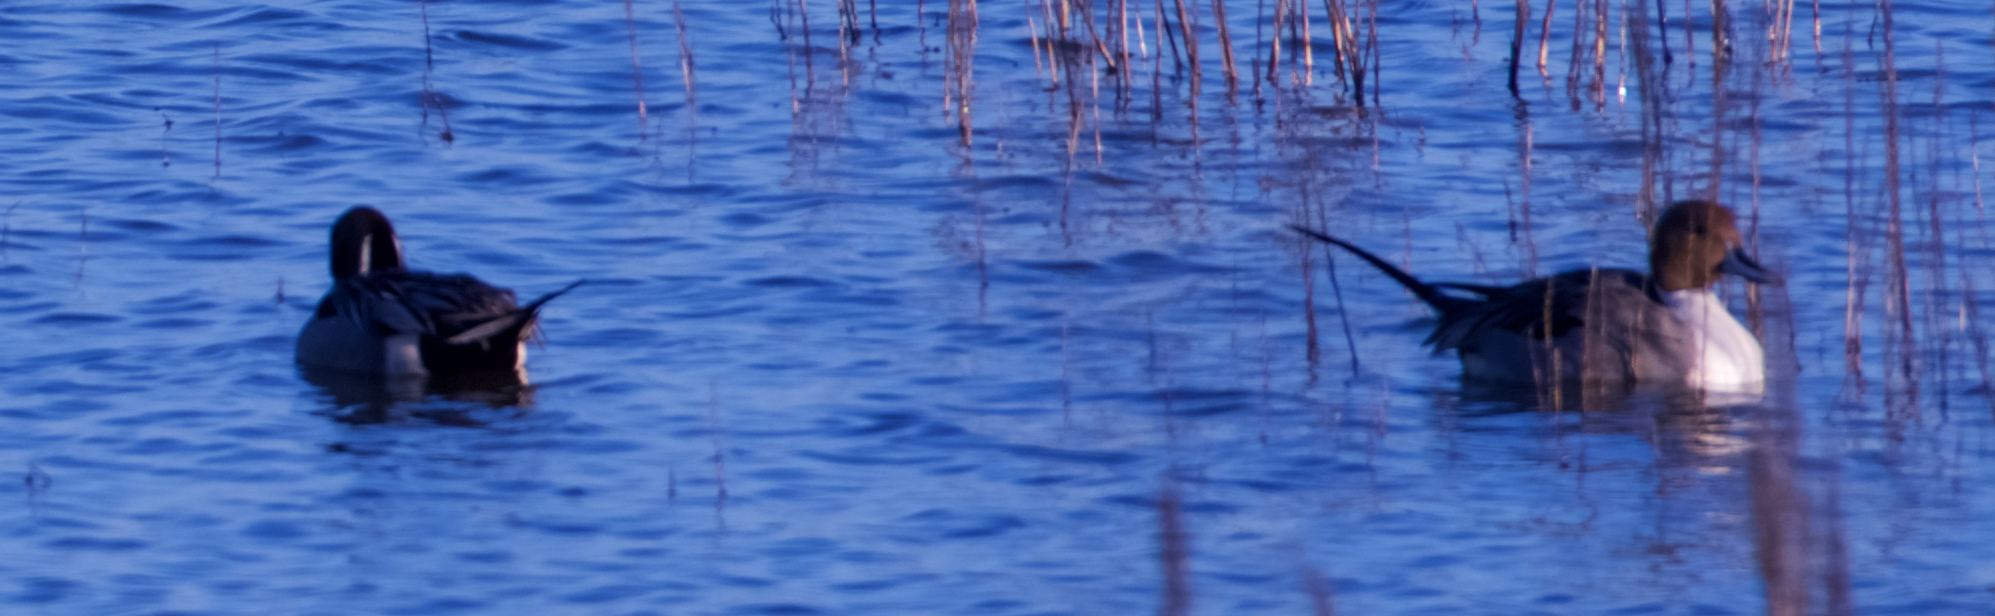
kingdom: Animalia
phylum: Chordata
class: Aves
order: Anseriformes
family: Anatidae
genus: Anas
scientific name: Anas acuta
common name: Northern pintail
